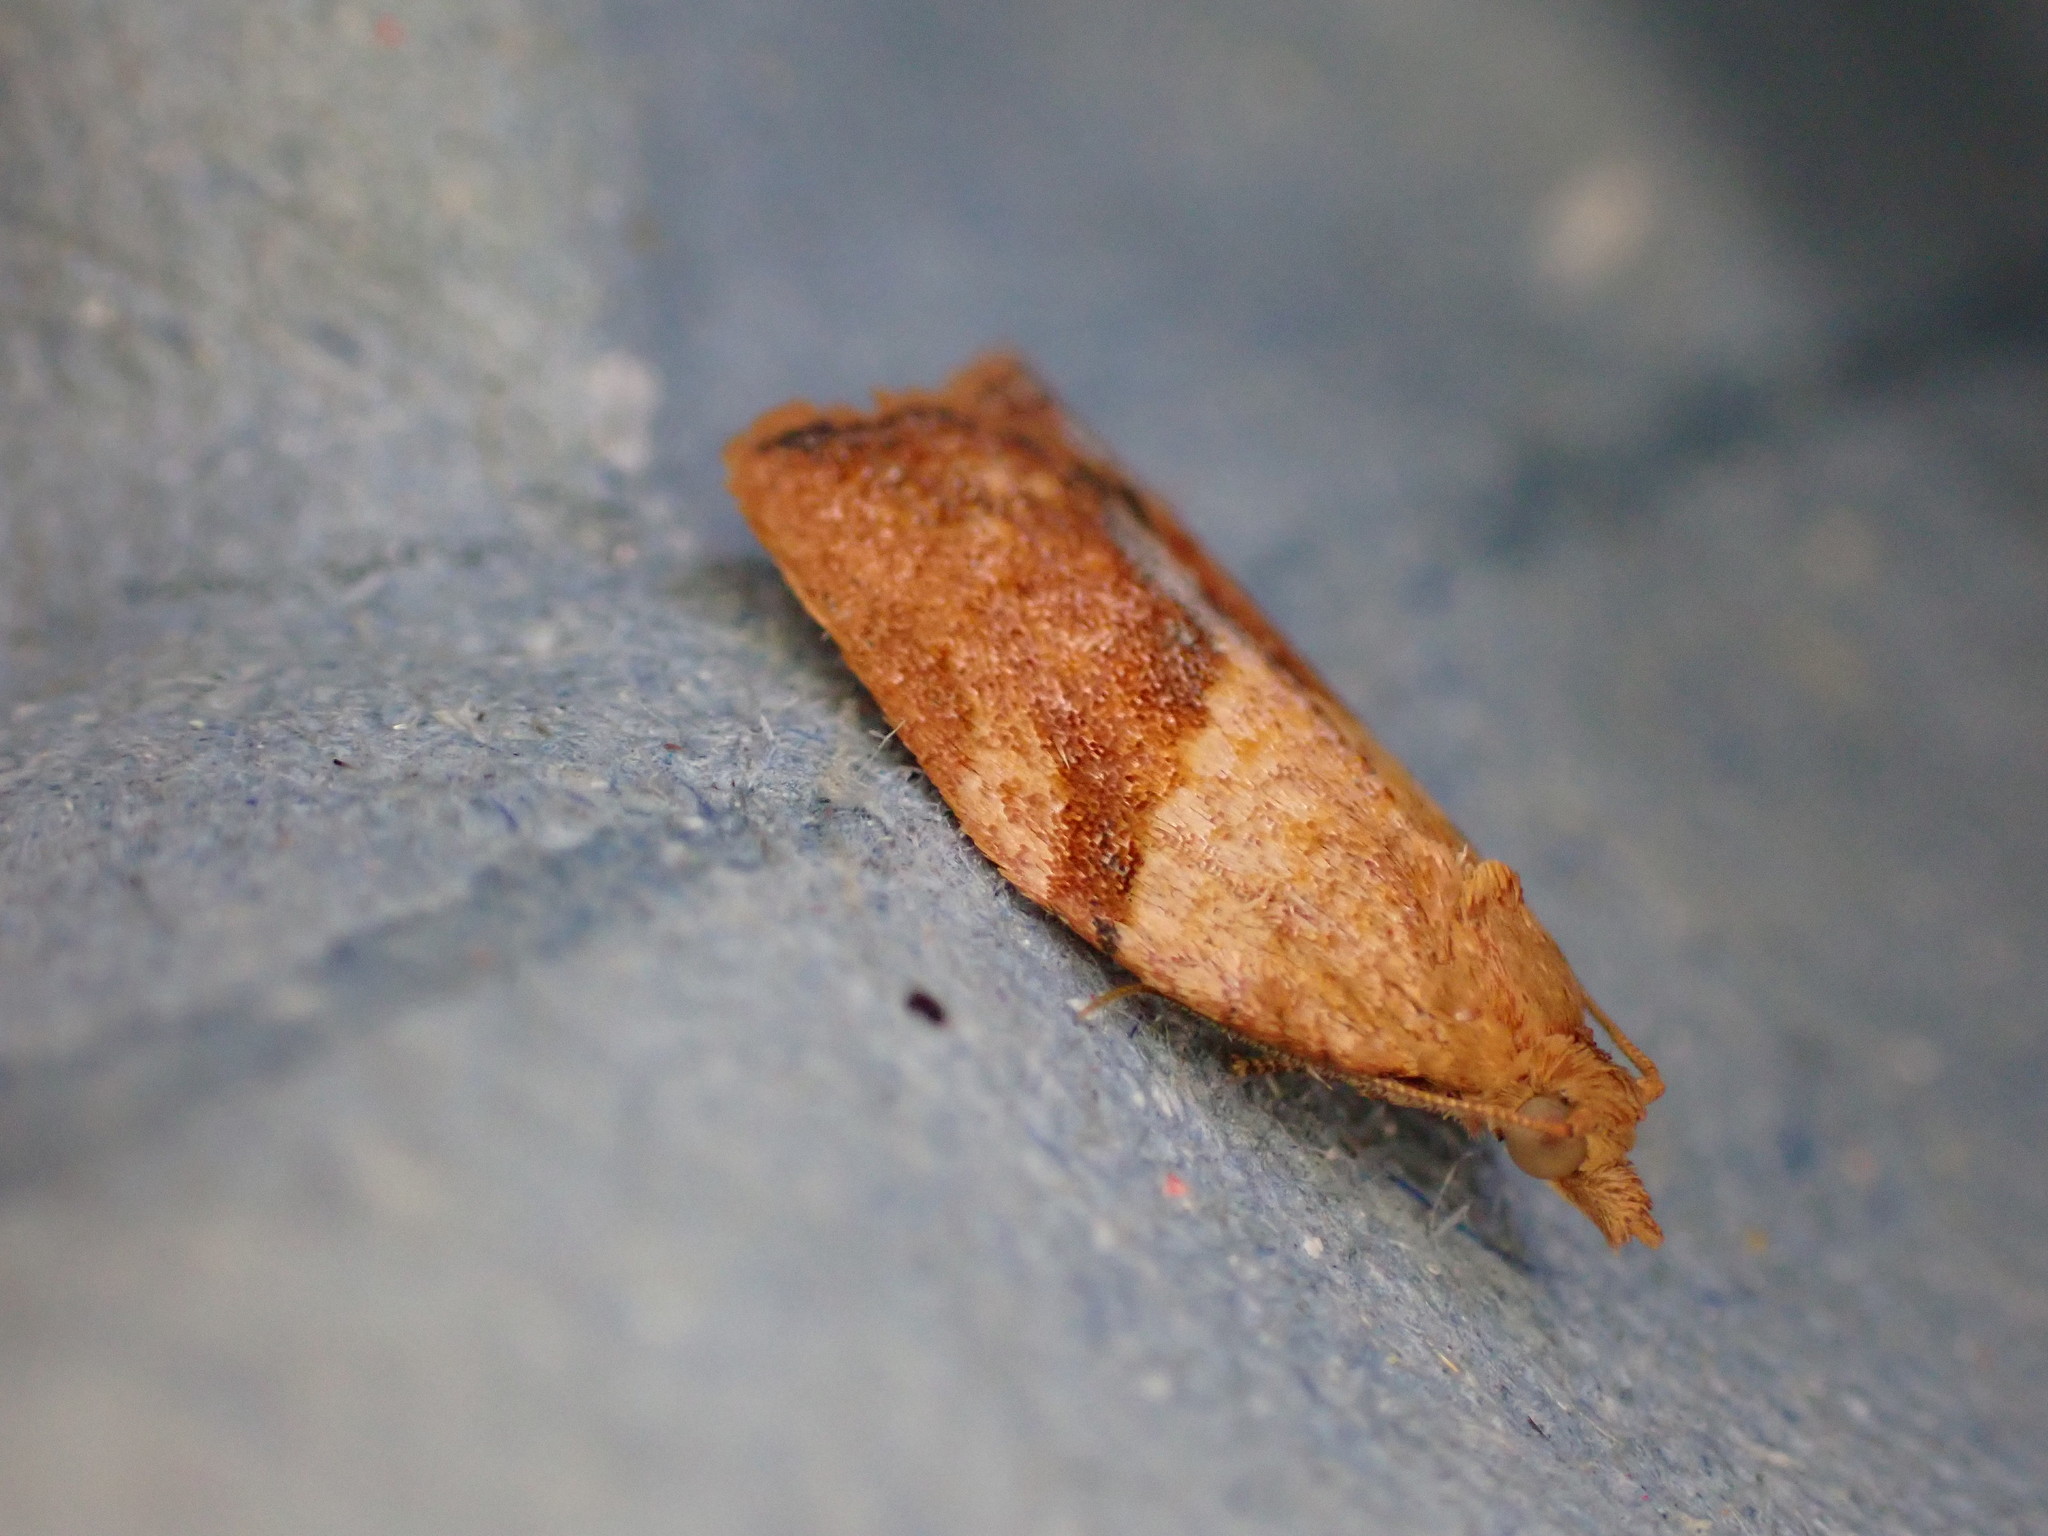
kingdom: Animalia
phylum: Arthropoda
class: Insecta
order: Lepidoptera
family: Tortricidae
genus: Epiphyas
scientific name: Epiphyas postvittana
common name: Light brown apple moth
